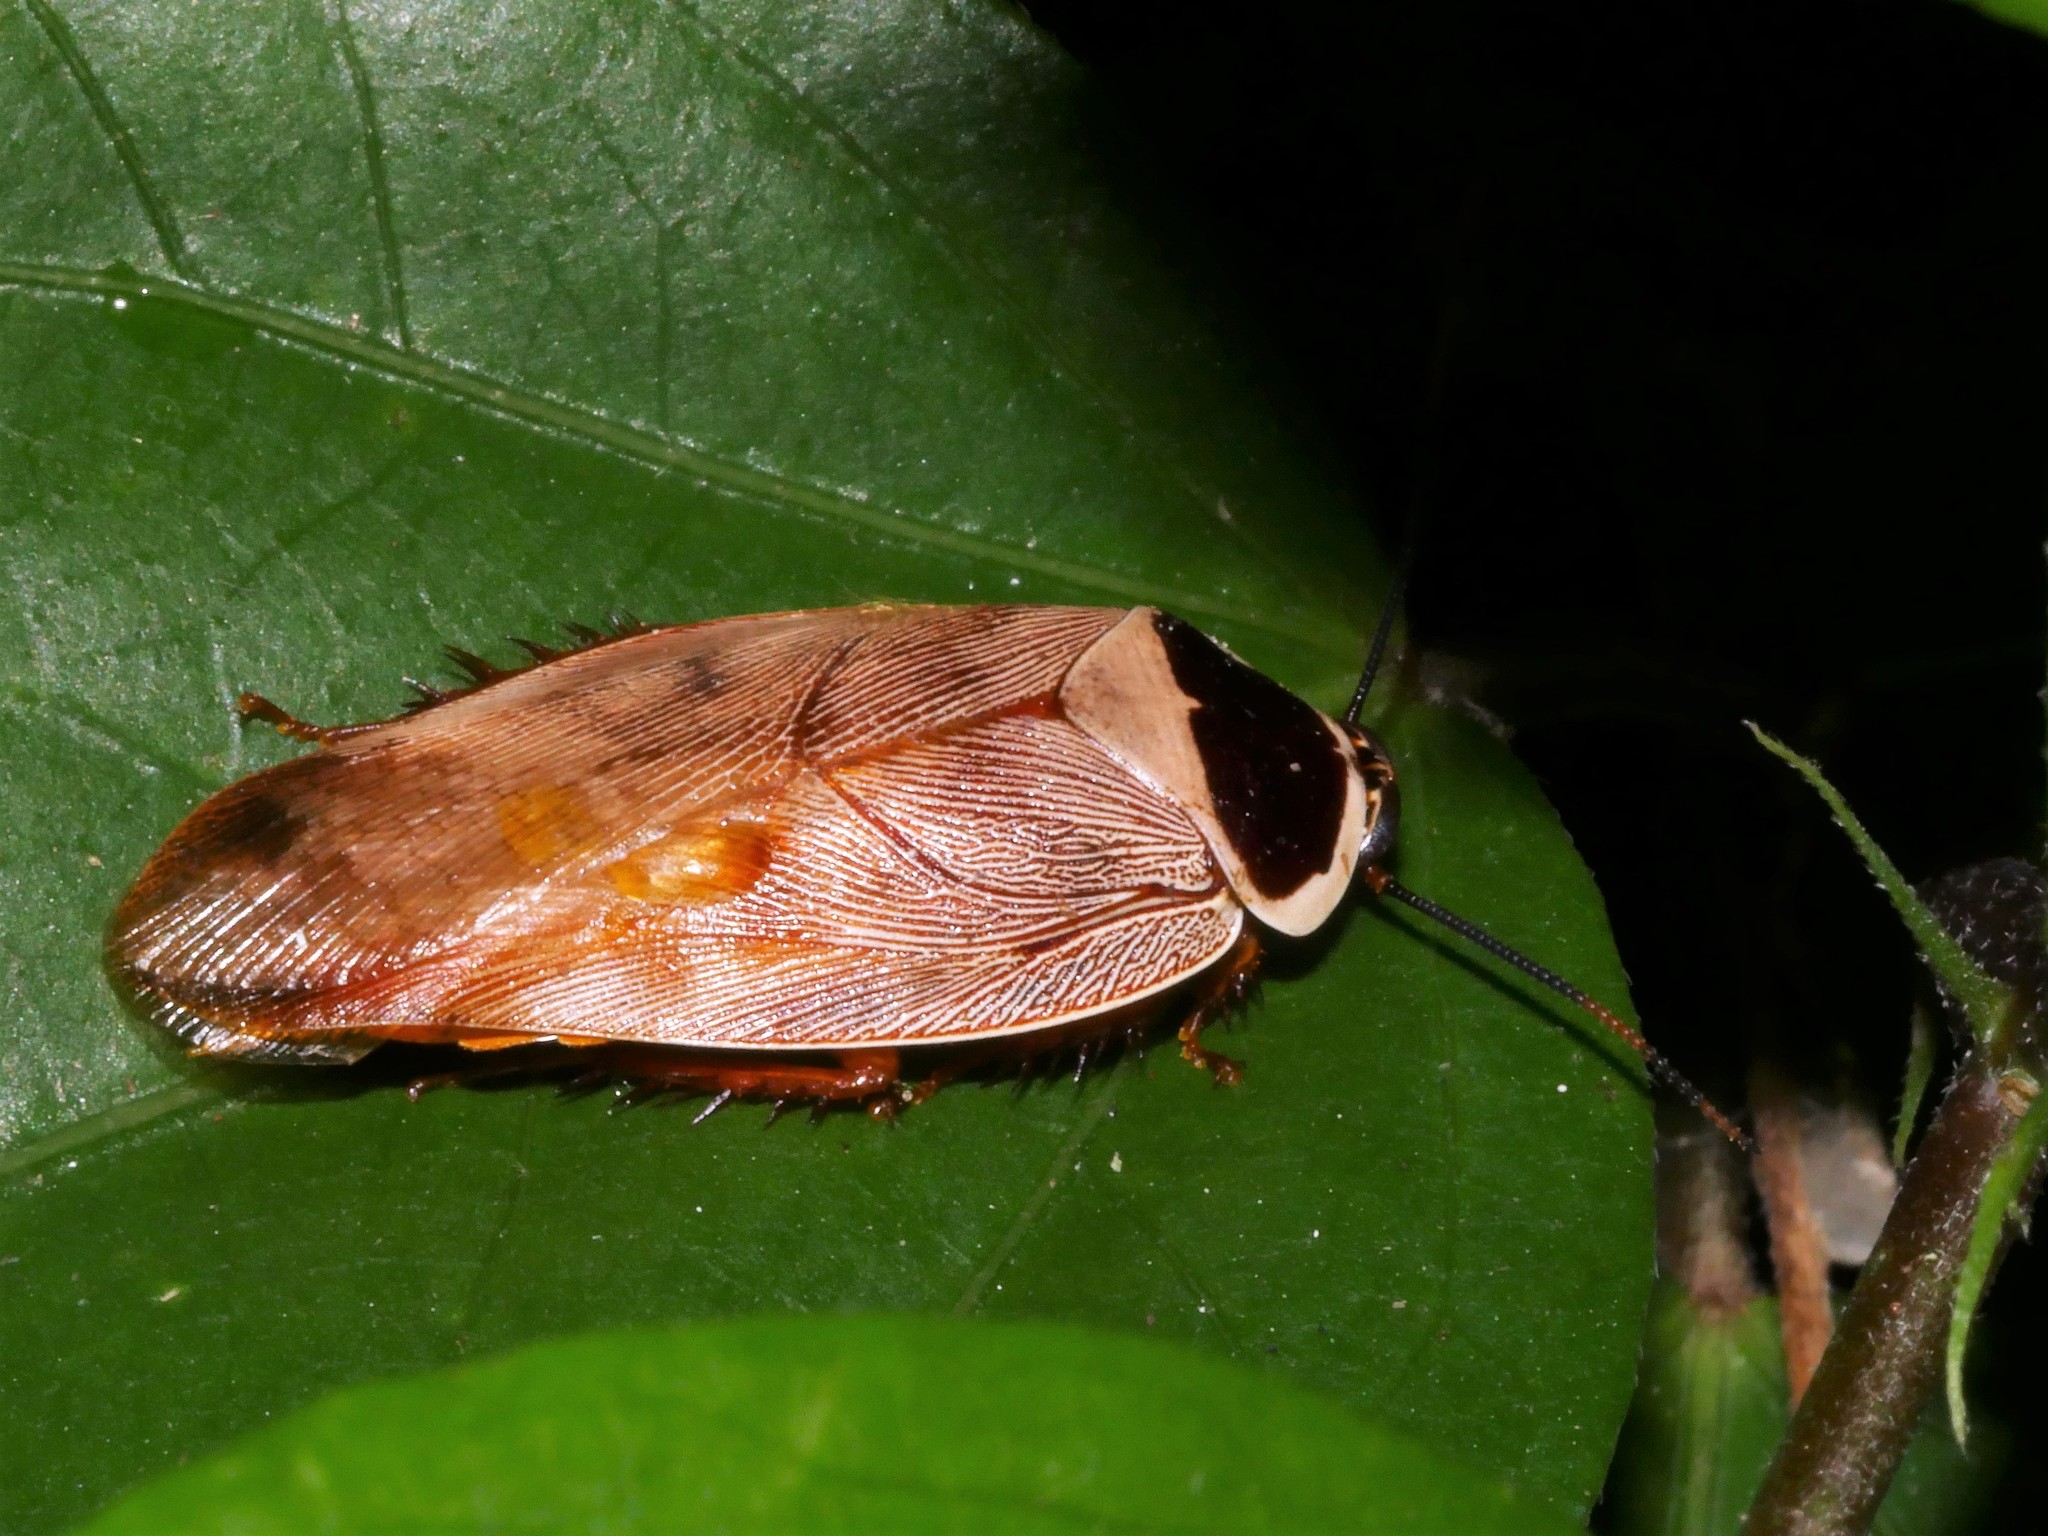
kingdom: Animalia
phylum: Arthropoda
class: Insecta
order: Blattodea
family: Blaberidae
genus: Gyna
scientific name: Gyna bisannulata
